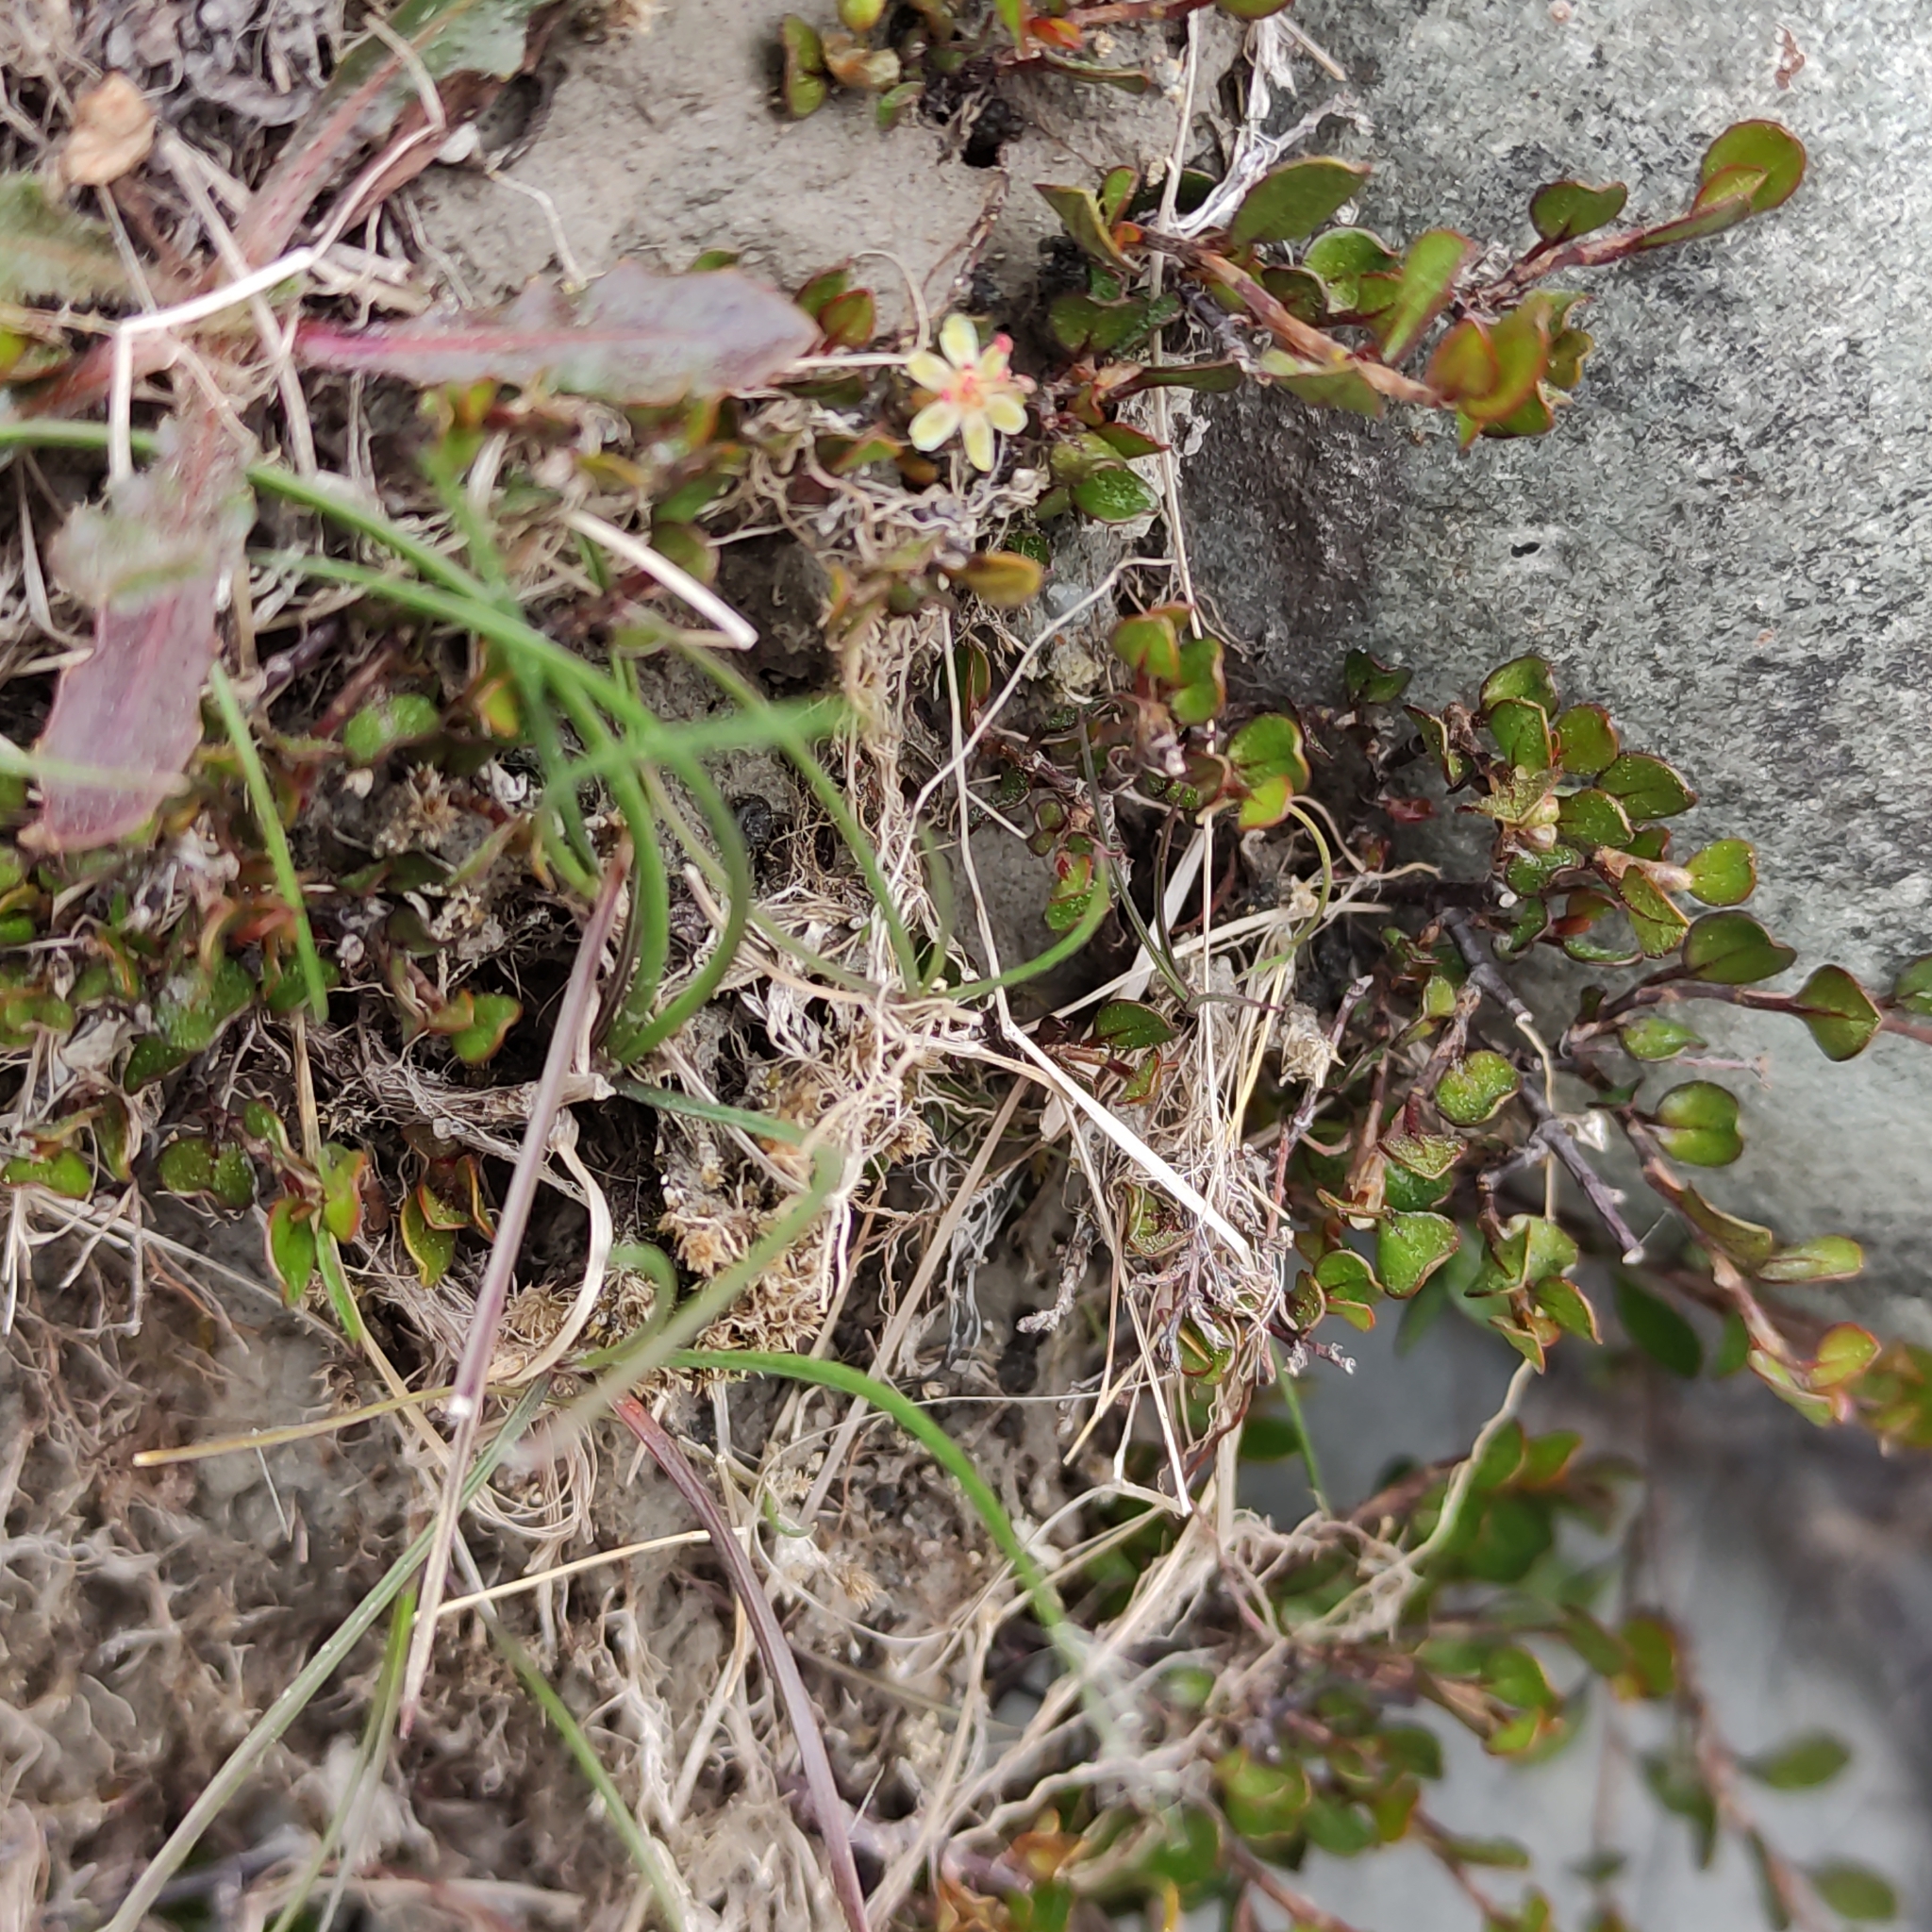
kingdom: Plantae
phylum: Tracheophyta
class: Magnoliopsida
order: Caryophyllales
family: Polygonaceae
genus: Muehlenbeckia
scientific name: Muehlenbeckia axillaris
